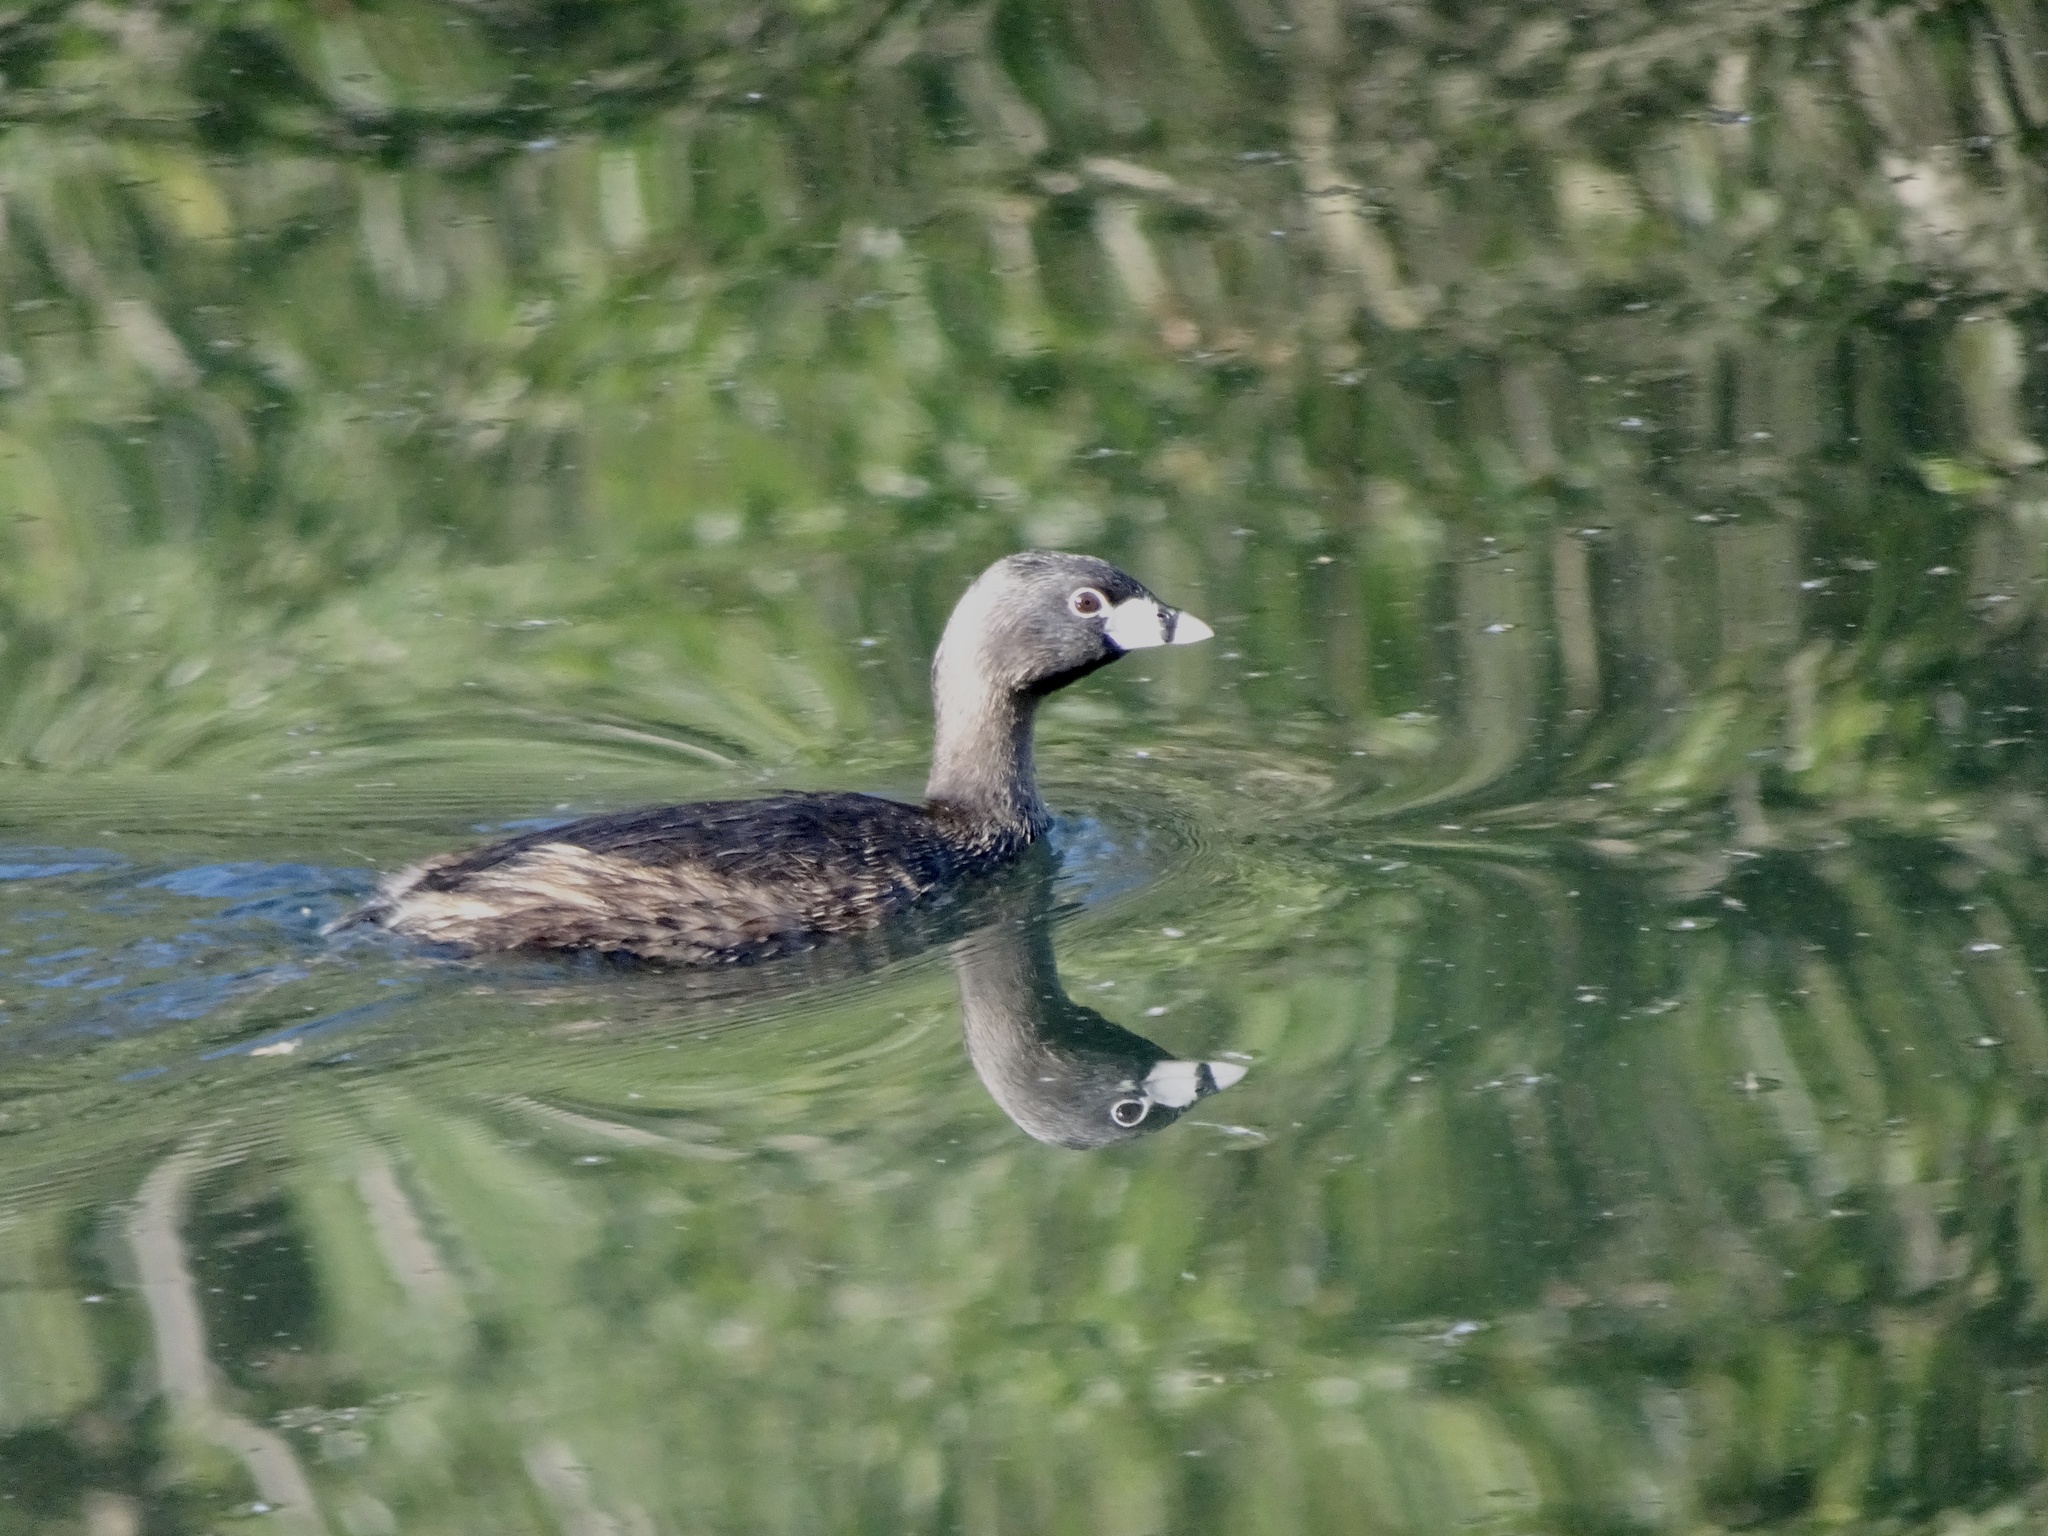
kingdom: Animalia
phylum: Chordata
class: Aves
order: Podicipediformes
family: Podicipedidae
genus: Podilymbus
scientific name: Podilymbus podiceps
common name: Pied-billed grebe
